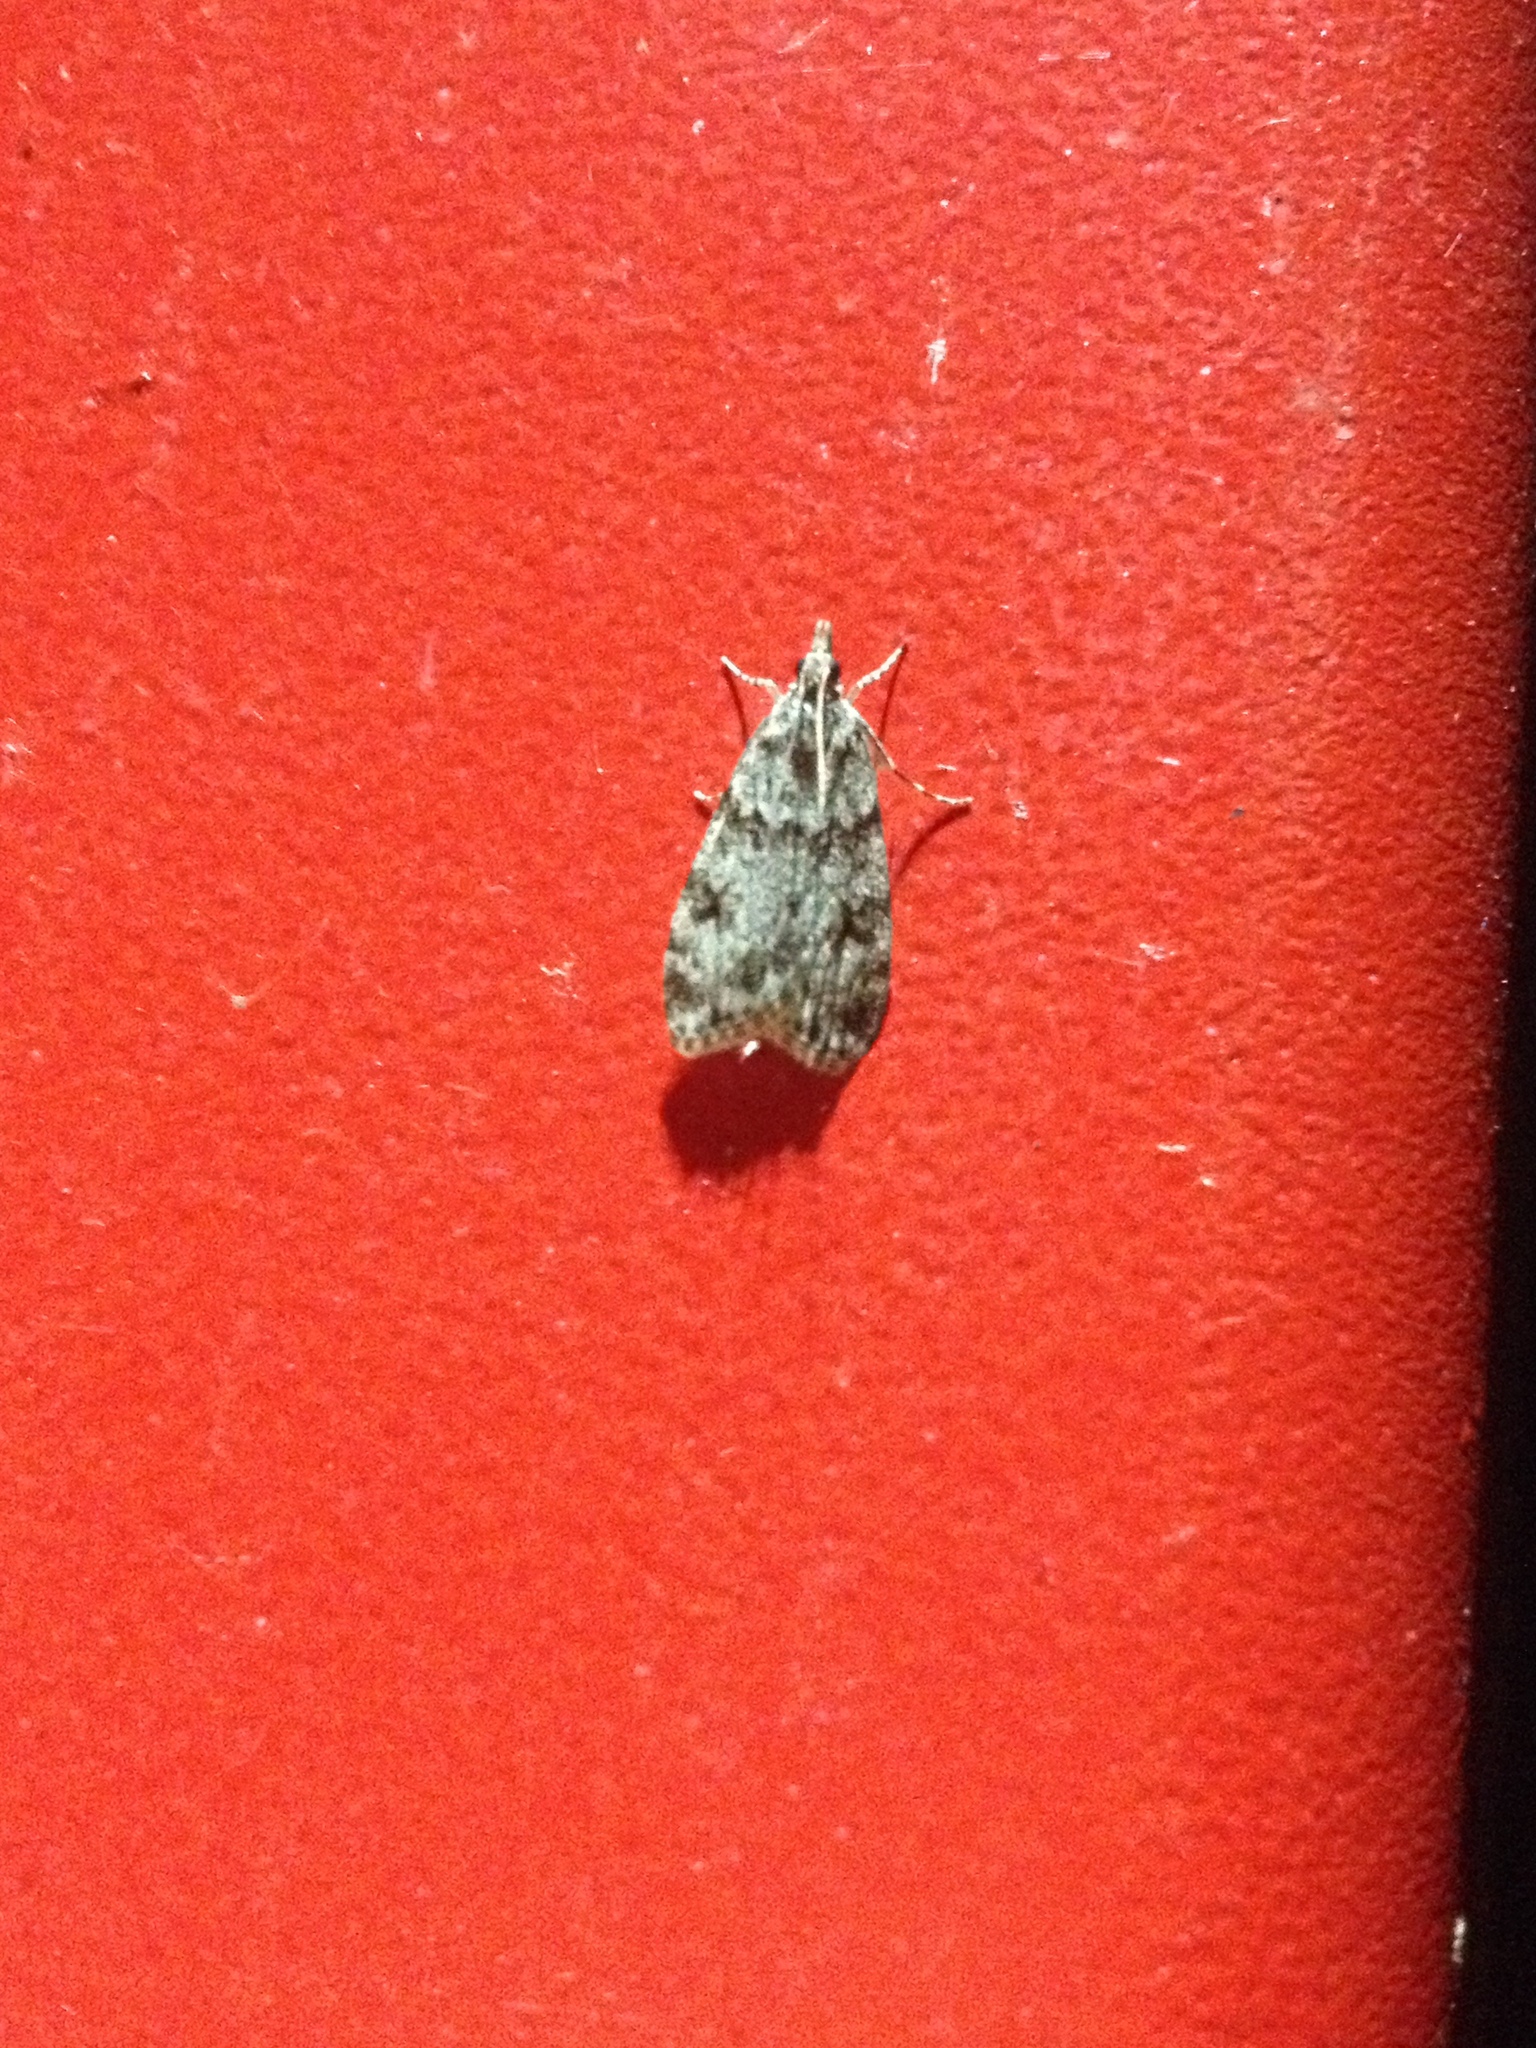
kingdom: Animalia
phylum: Arthropoda
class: Insecta
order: Lepidoptera
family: Crambidae
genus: Scoparia
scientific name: Scoparia cembrella
